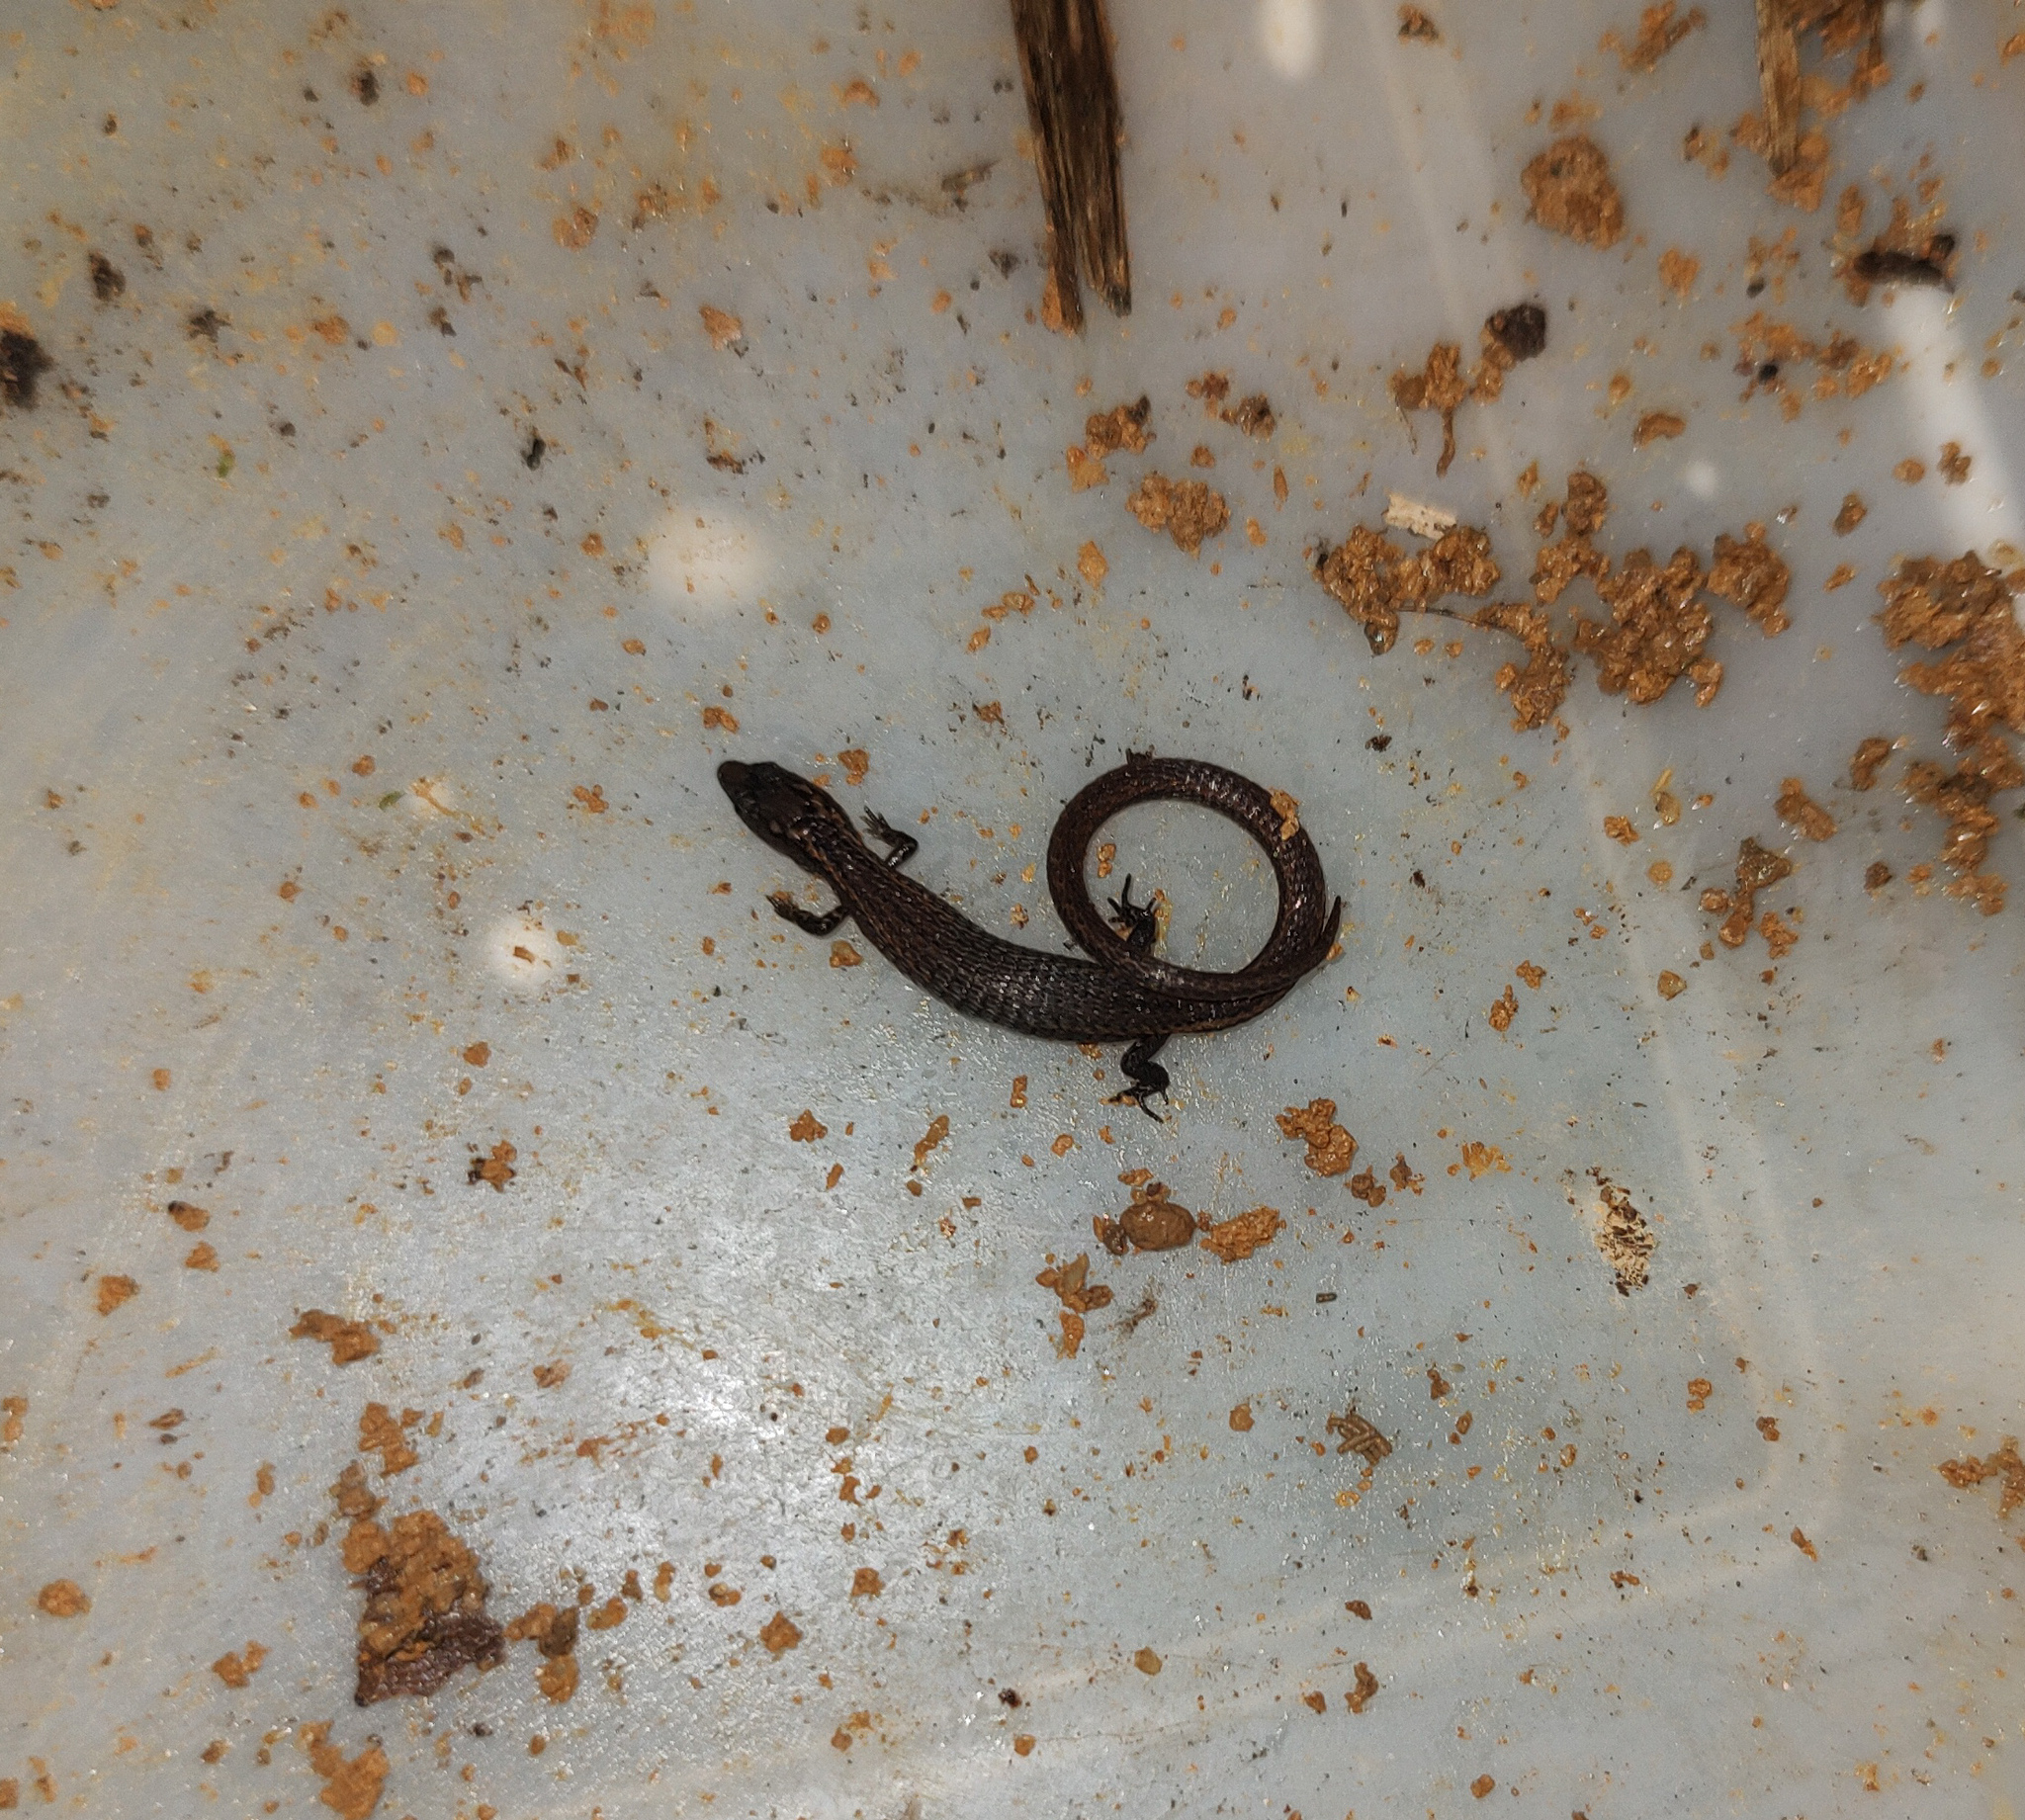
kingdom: Animalia
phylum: Chordata
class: Squamata
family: Gymnophthalmidae
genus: Ecpleopus
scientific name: Ecpleopus gaudichaudii
